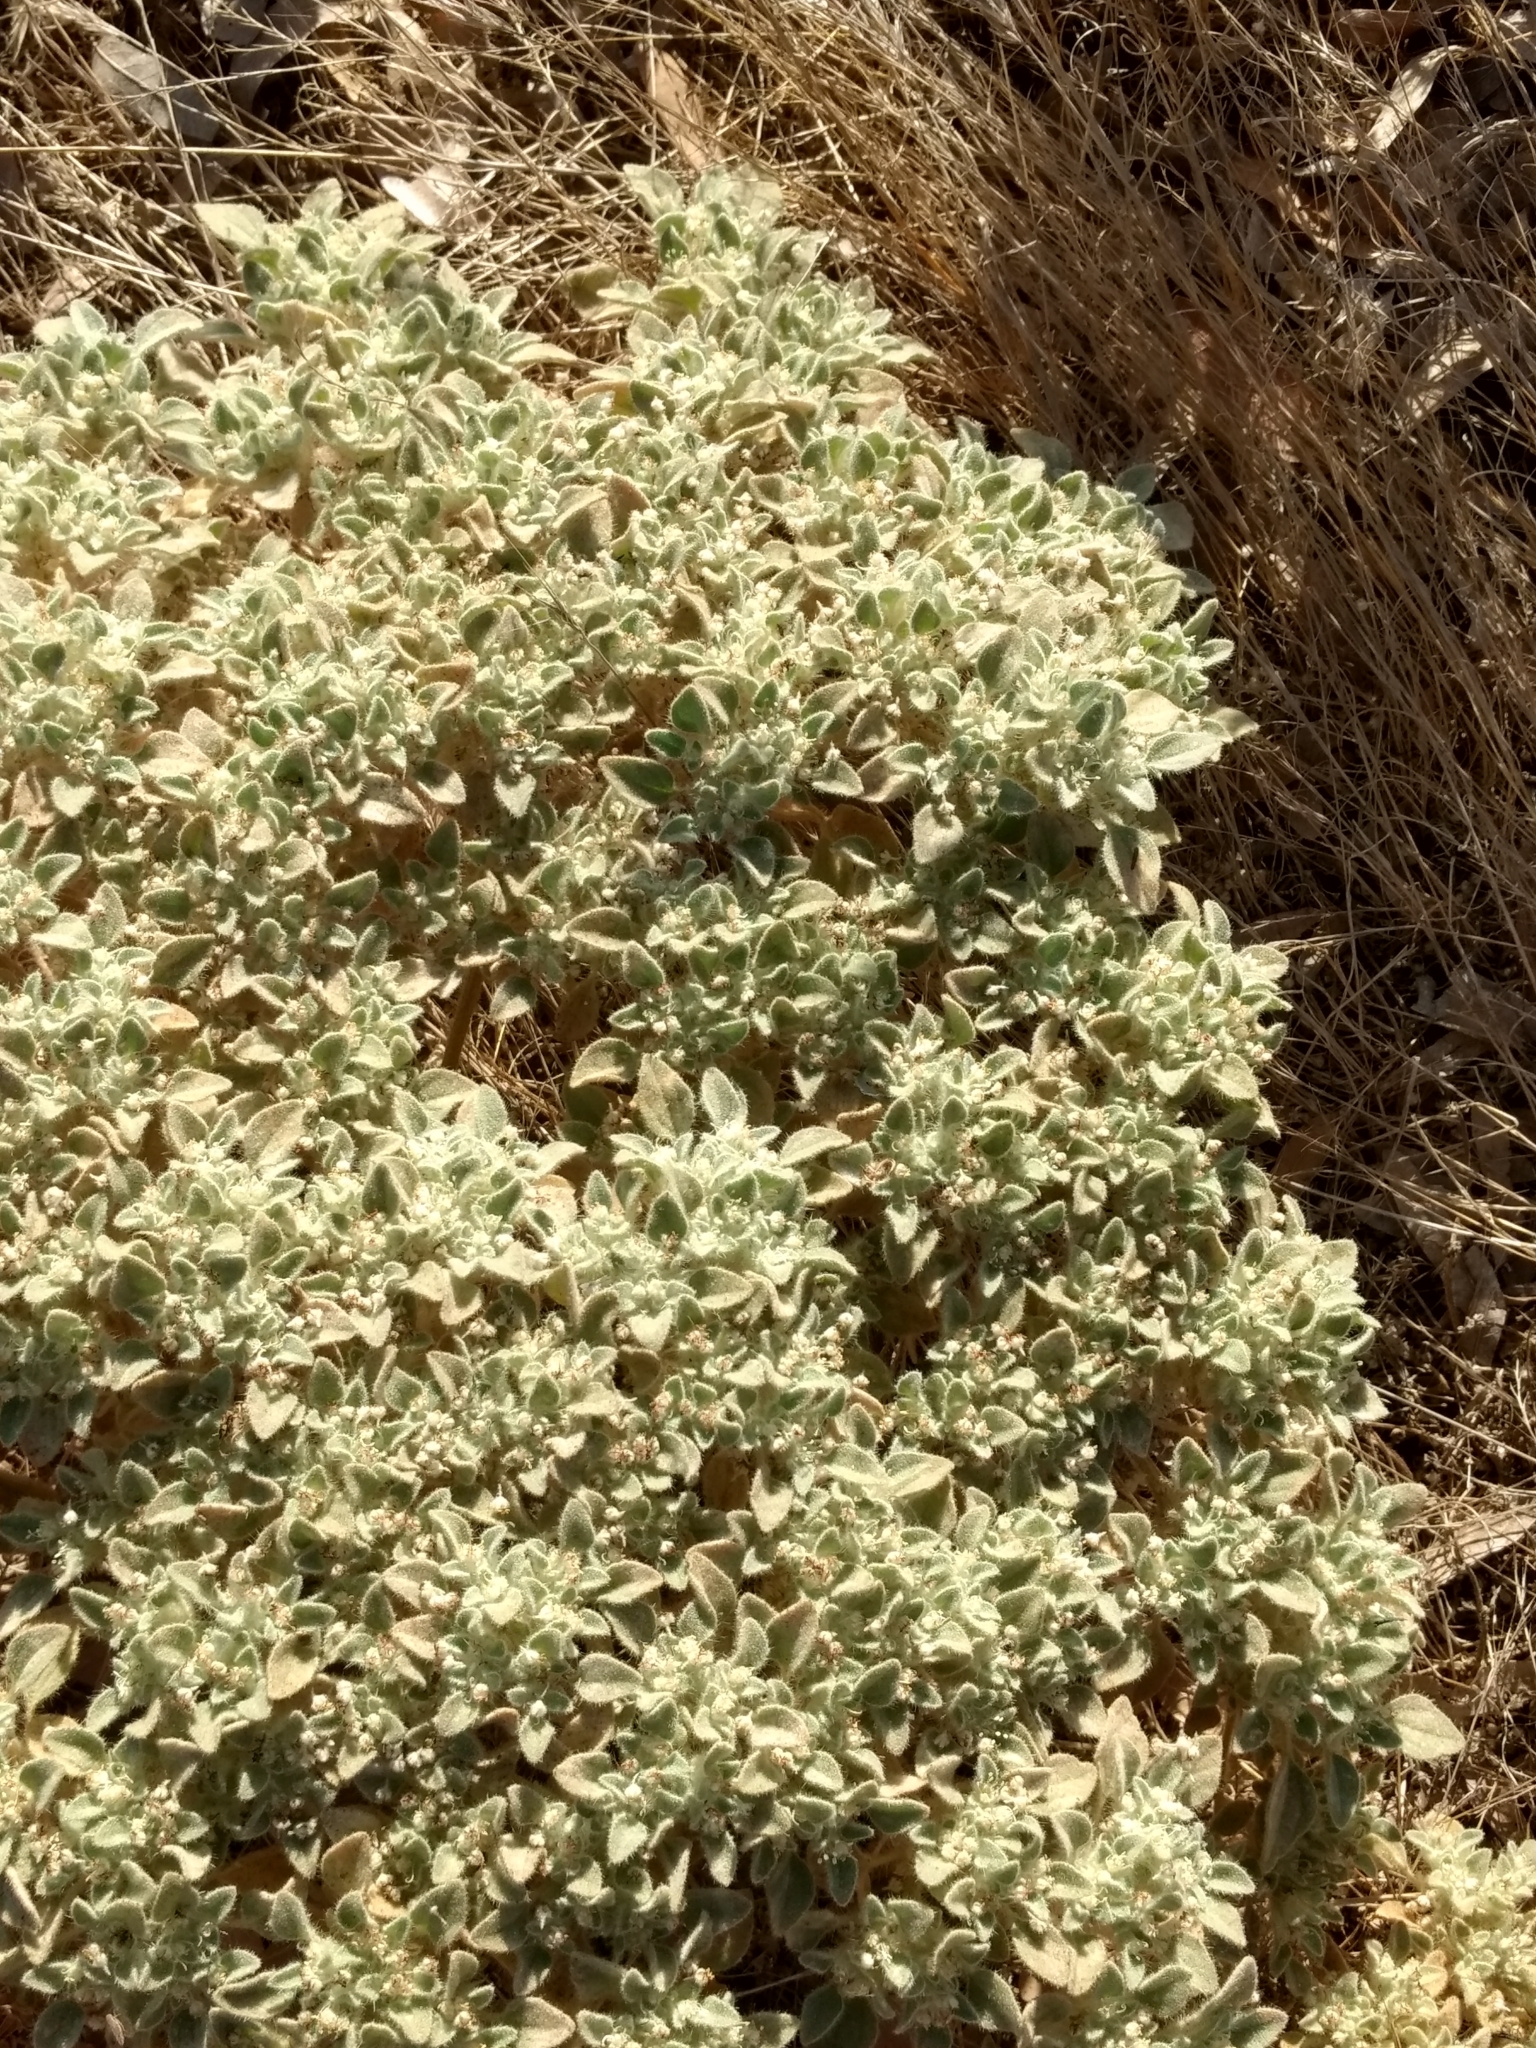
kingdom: Plantae
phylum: Tracheophyta
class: Magnoliopsida
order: Malpighiales
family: Euphorbiaceae
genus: Croton
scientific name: Croton setiger
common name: Dove weed
